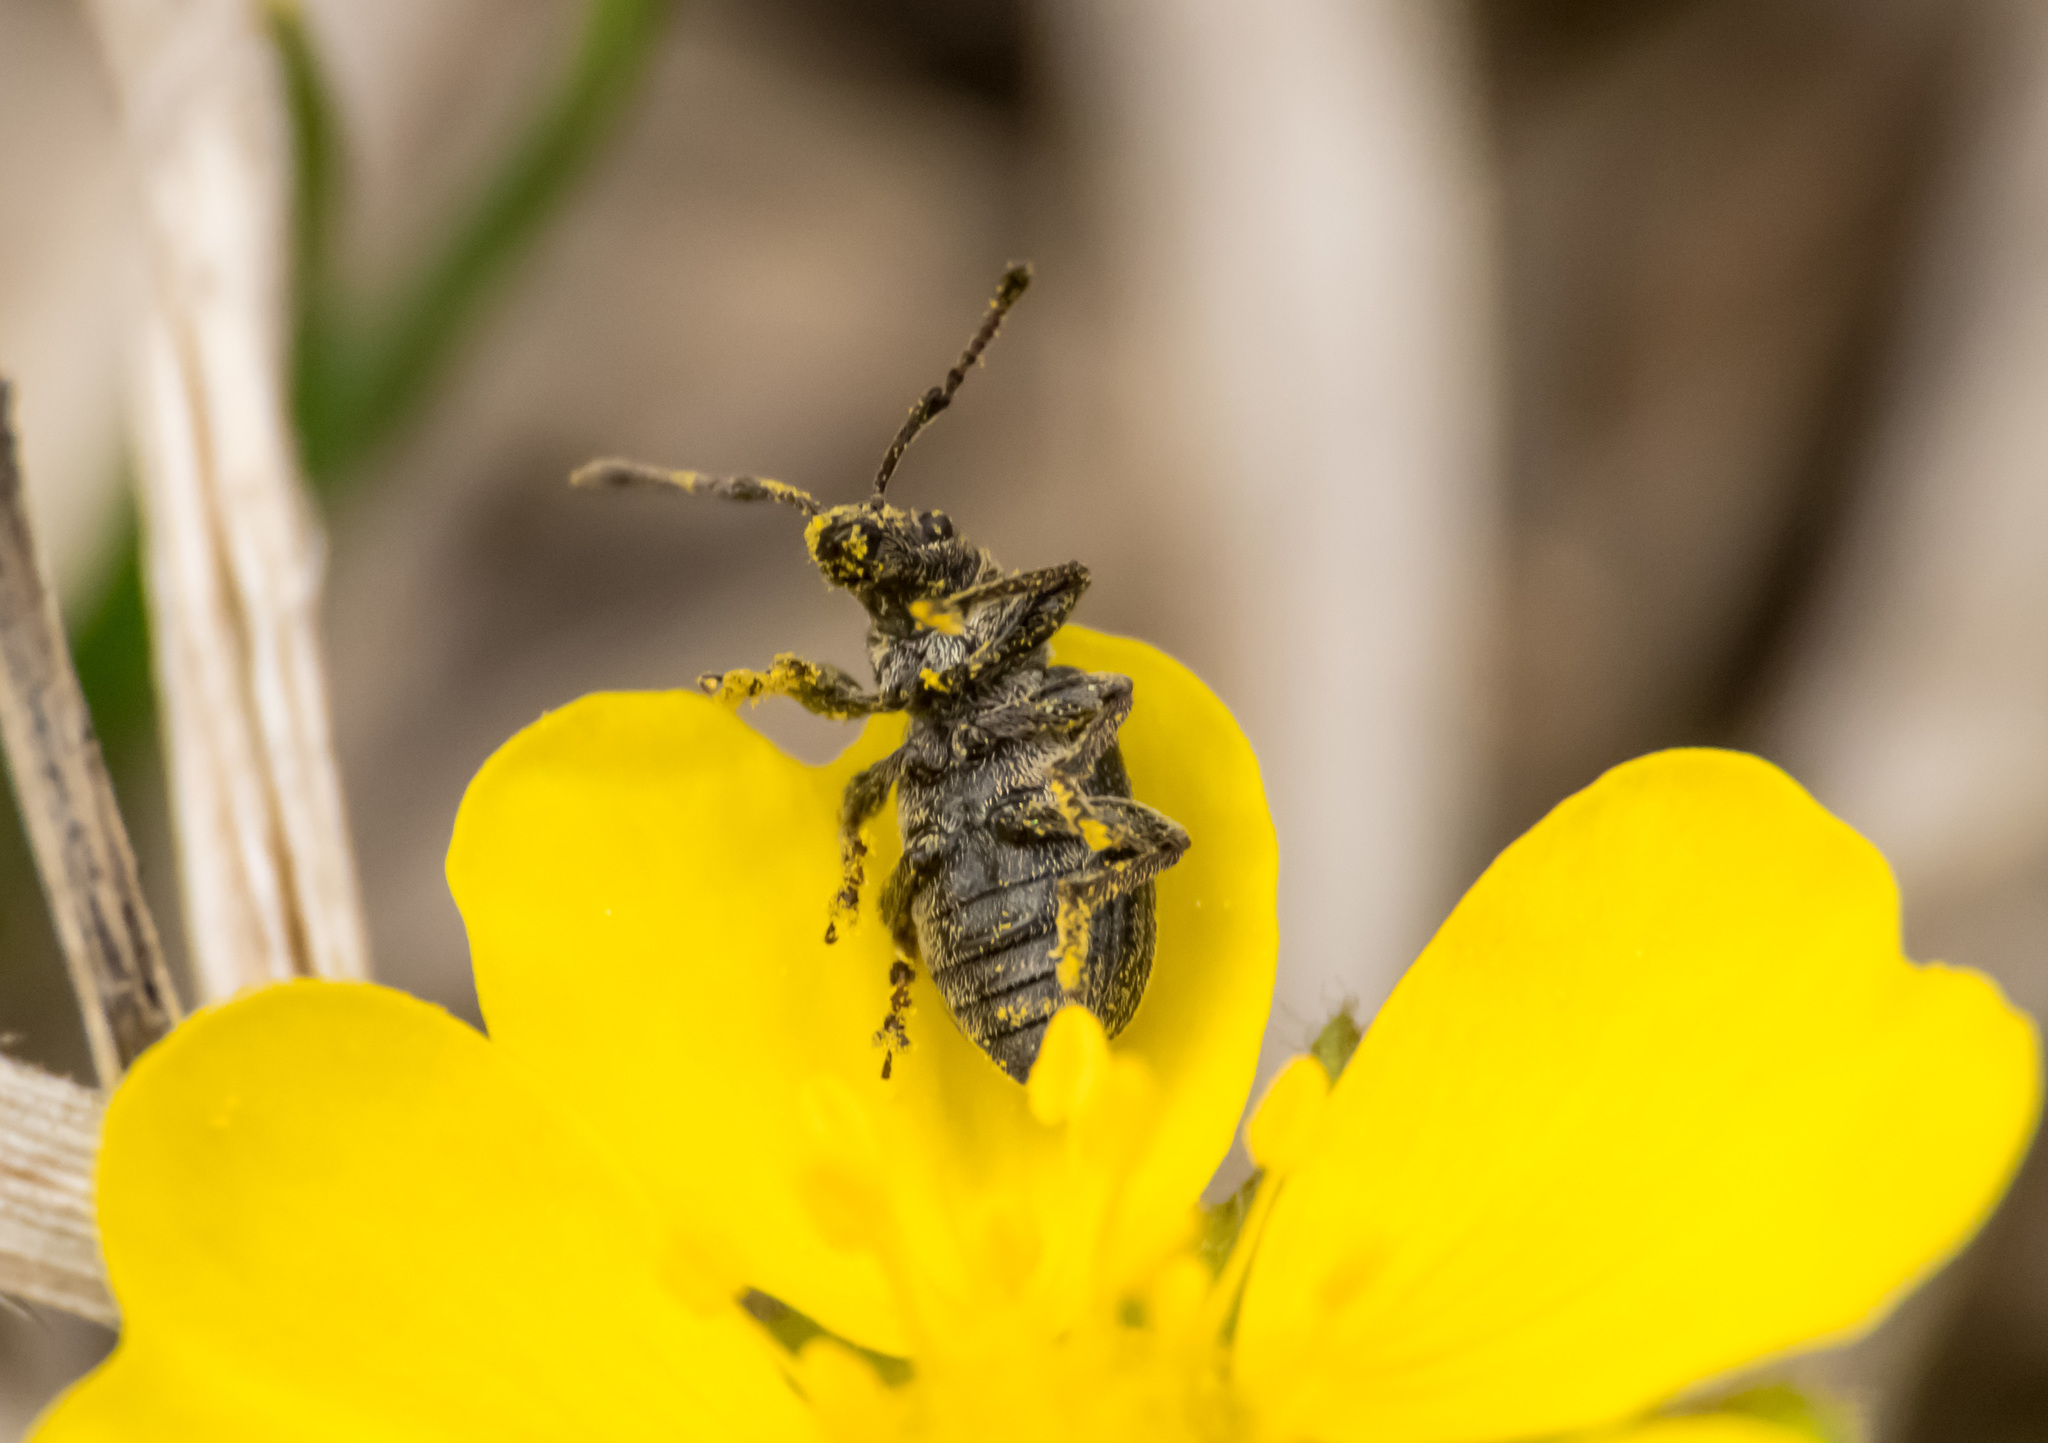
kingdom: Animalia
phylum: Arthropoda
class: Insecta
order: Coleoptera
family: Curculionidae
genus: Phyllobius
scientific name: Phyllobius pyri
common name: Common leaf weevil
